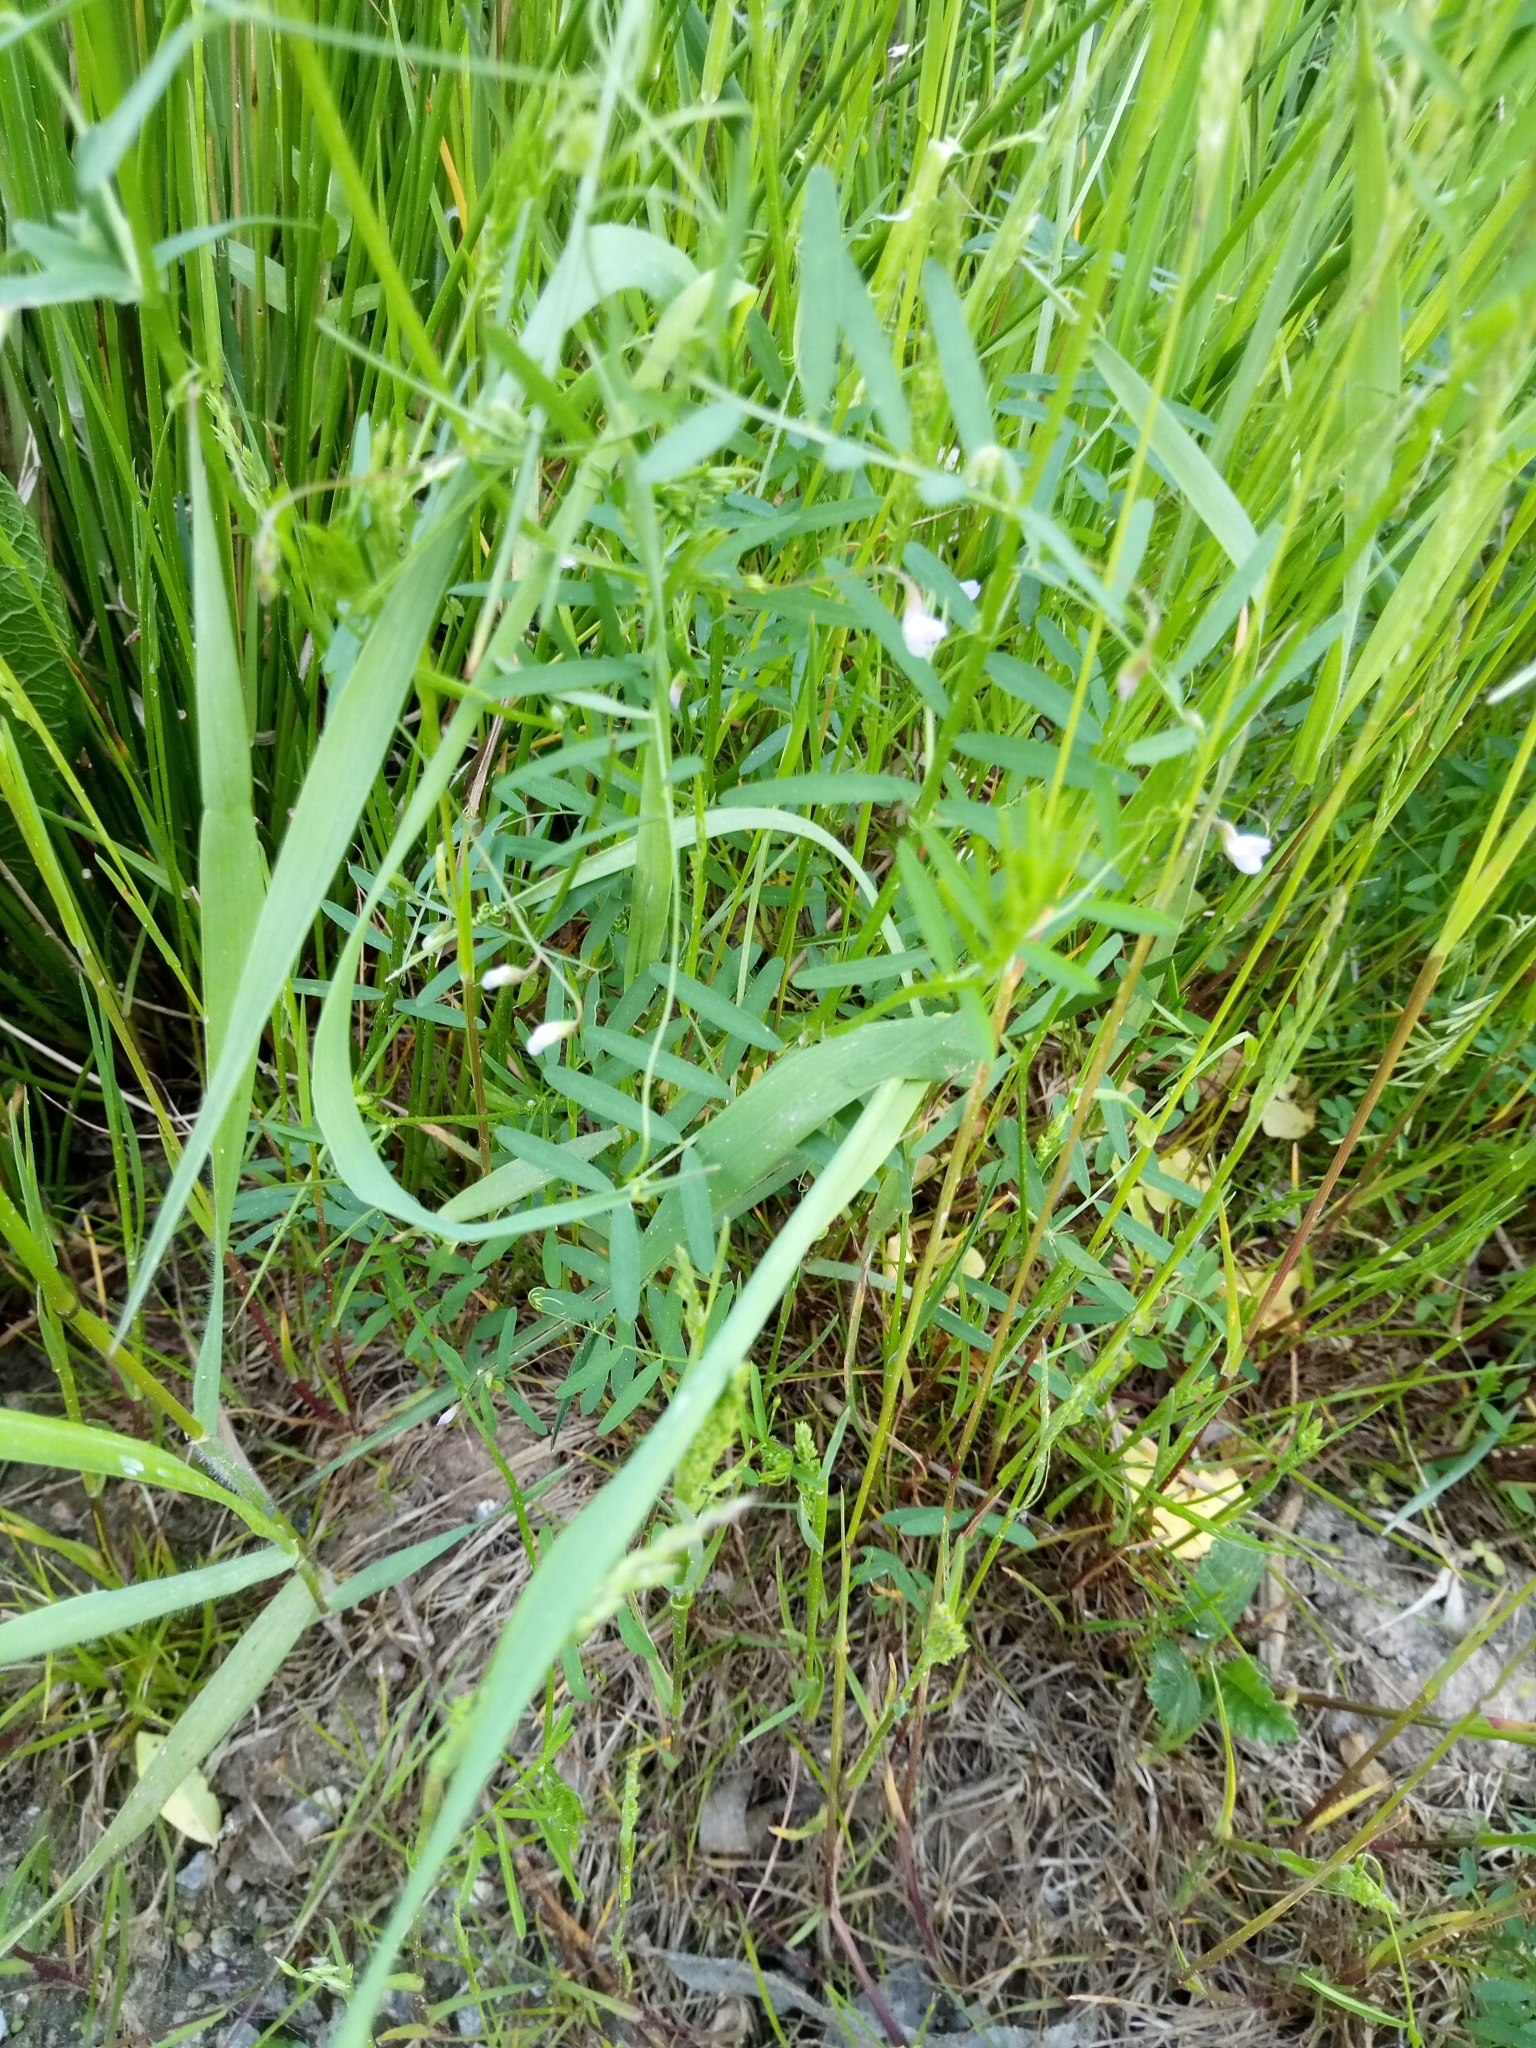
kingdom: Plantae
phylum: Tracheophyta
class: Magnoliopsida
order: Fabales
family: Fabaceae
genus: Vicia
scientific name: Vicia tetrasperma
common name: Smooth tare
